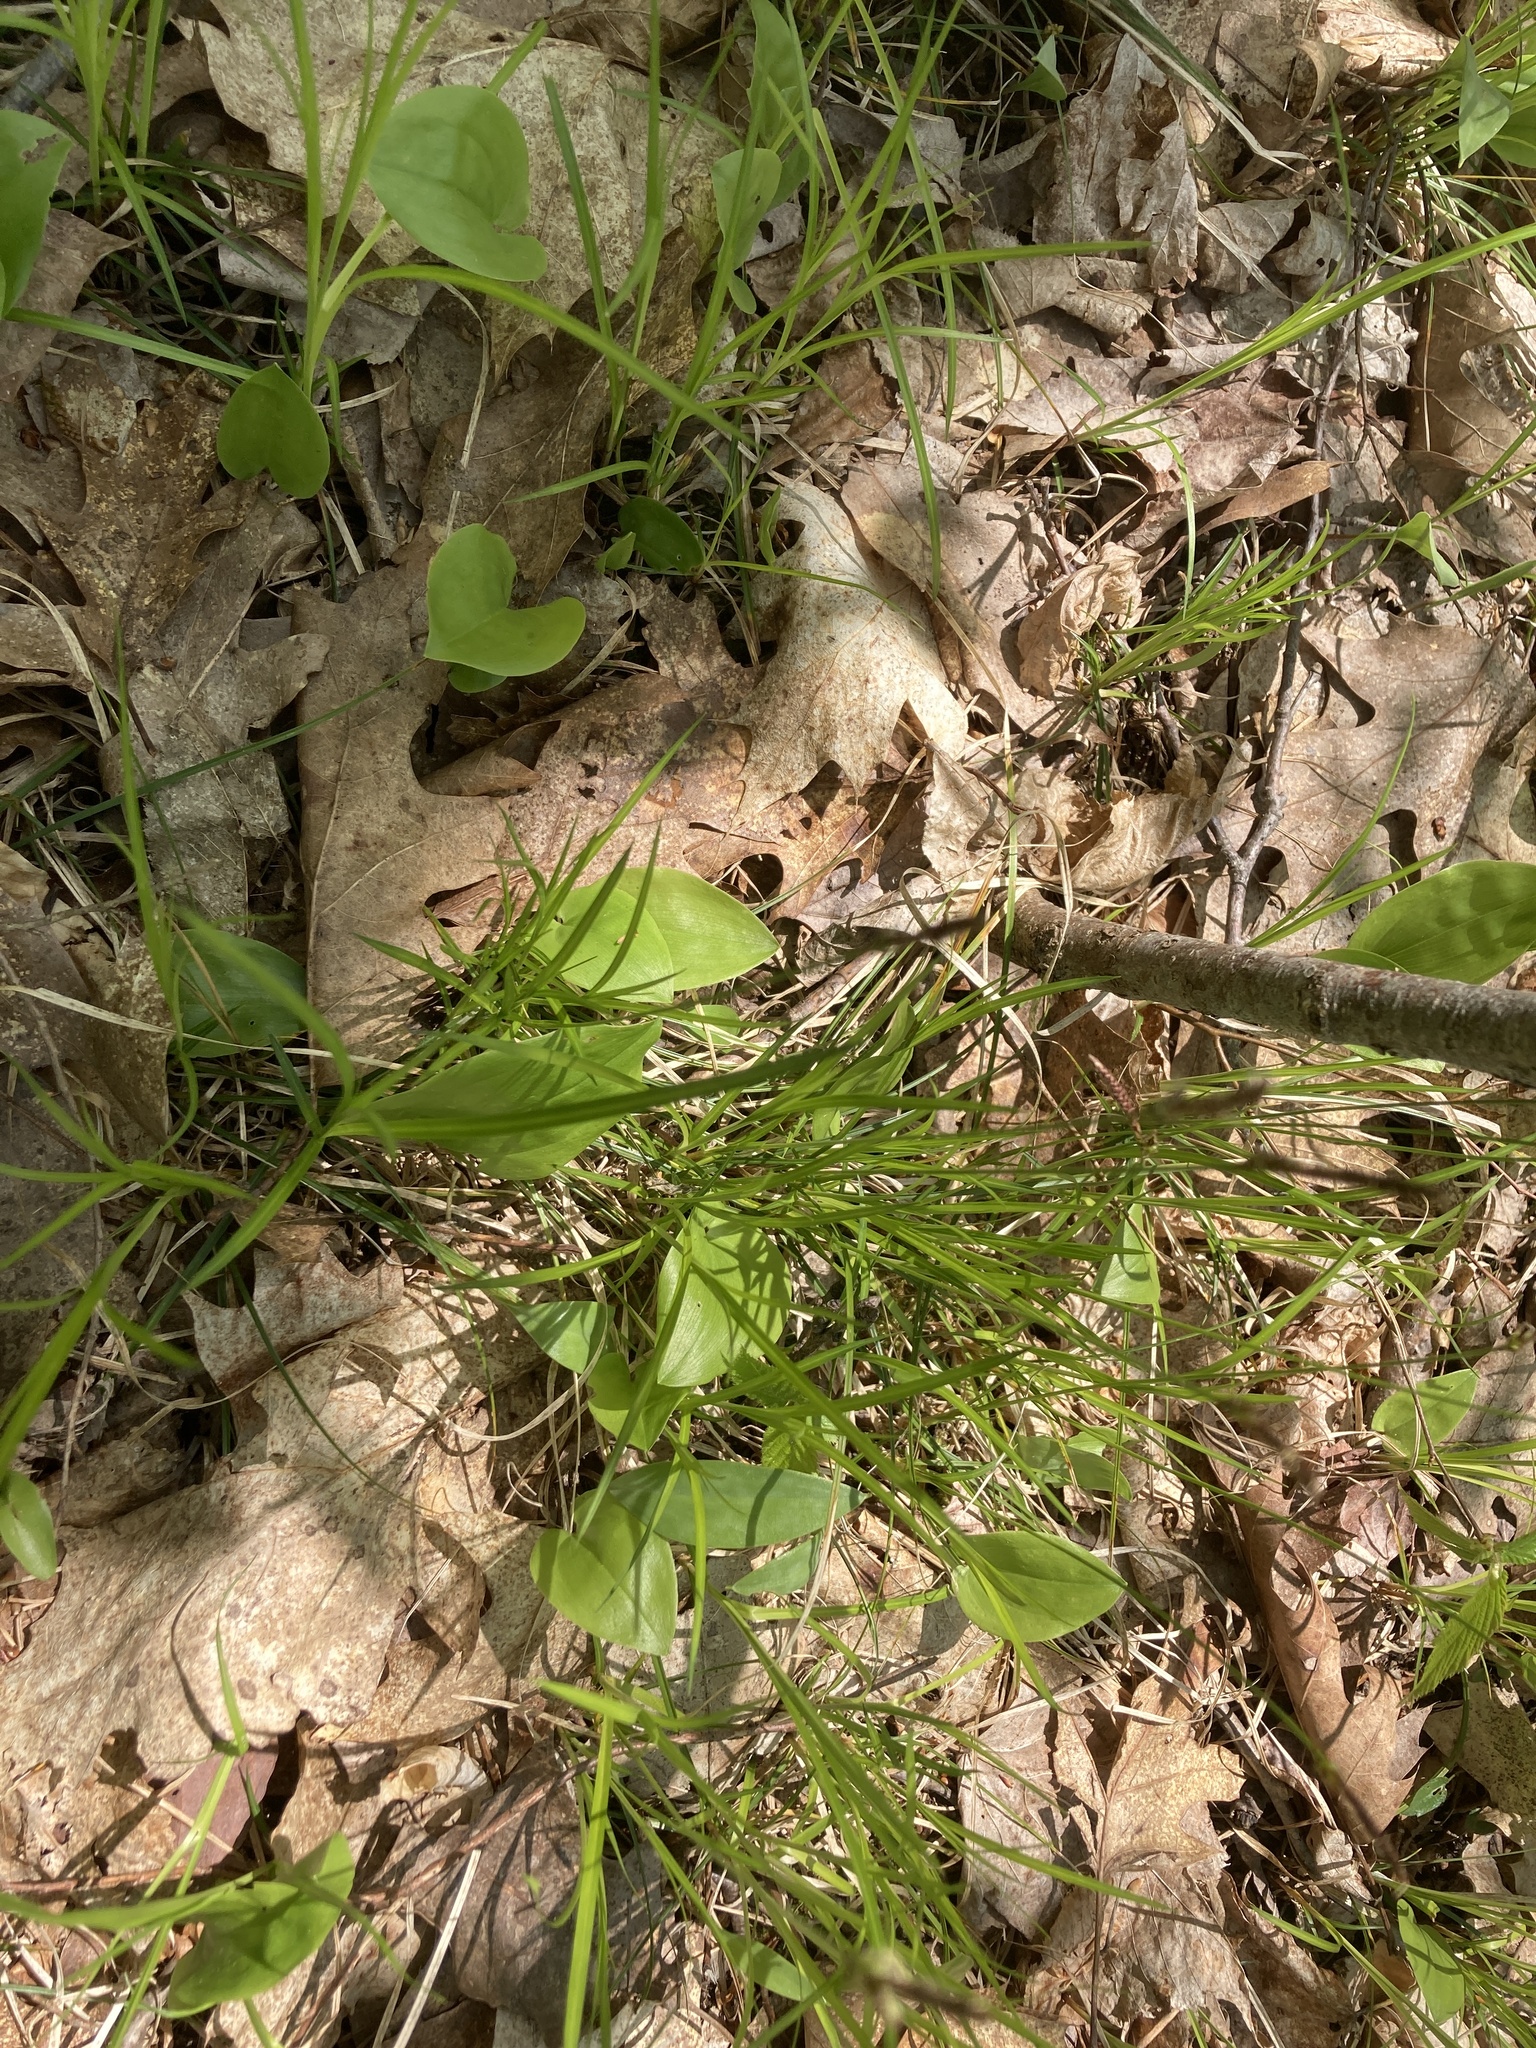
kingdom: Plantae
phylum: Tracheophyta
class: Liliopsida
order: Asparagales
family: Asparagaceae
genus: Maianthemum
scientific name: Maianthemum canadense
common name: False lily-of-the-valley
